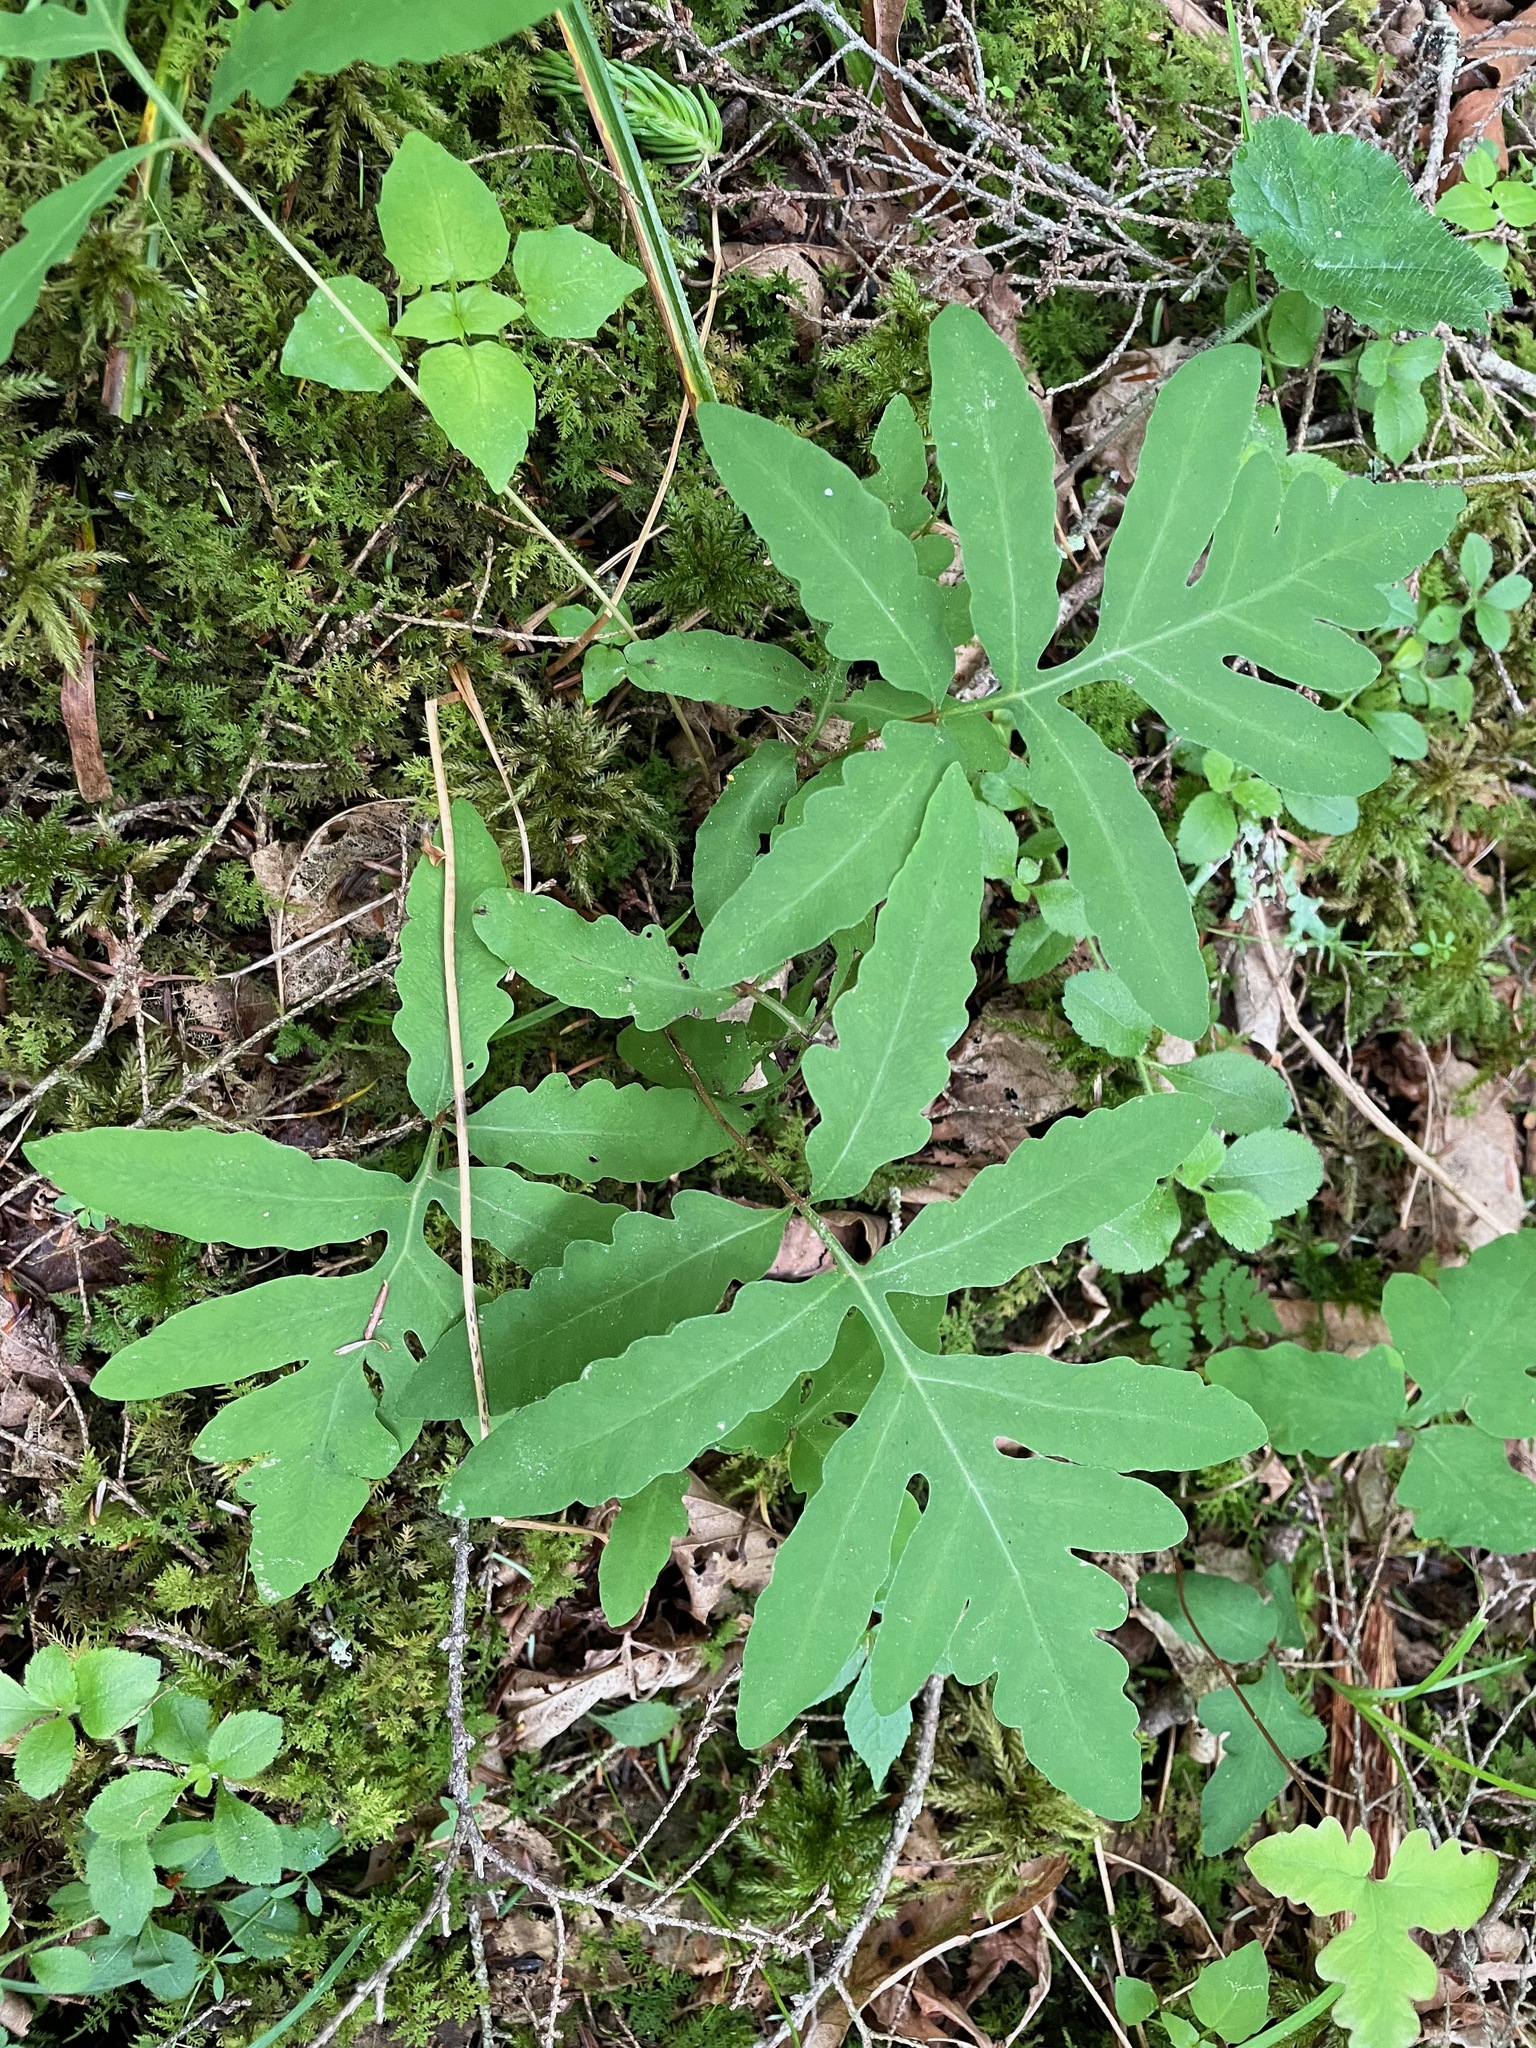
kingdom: Plantae
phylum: Tracheophyta
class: Polypodiopsida
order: Polypodiales
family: Onocleaceae
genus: Onoclea
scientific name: Onoclea sensibilis
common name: Sensitive fern
